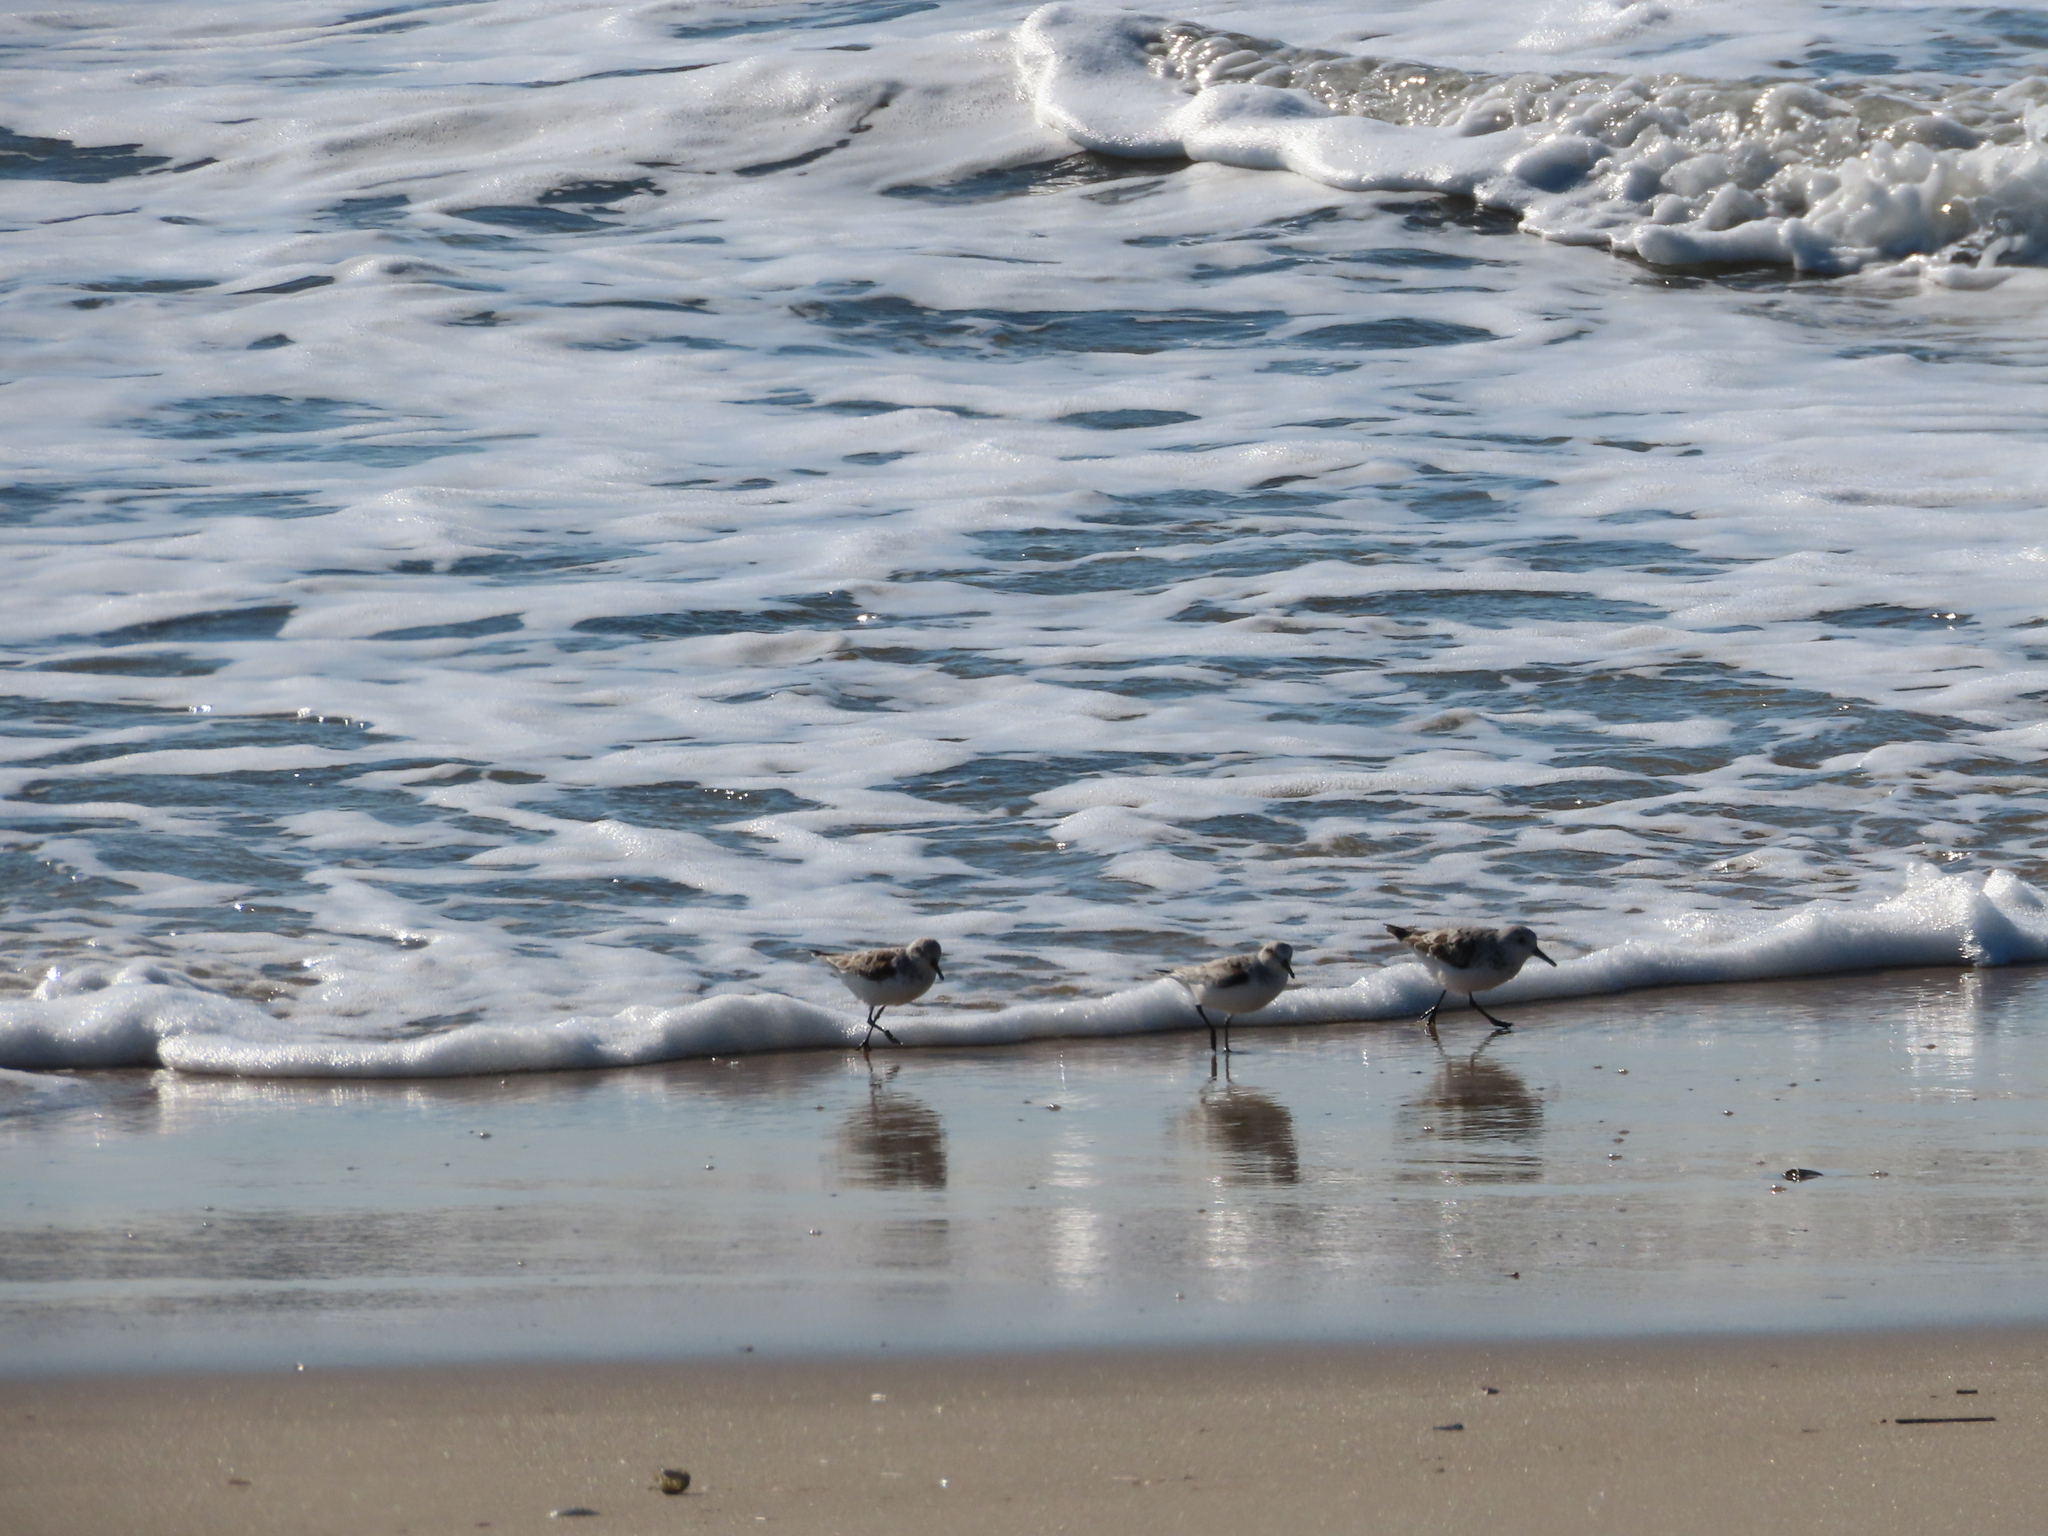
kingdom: Animalia
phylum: Chordata
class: Aves
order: Charadriiformes
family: Scolopacidae
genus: Calidris
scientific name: Calidris alba
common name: Sanderling
